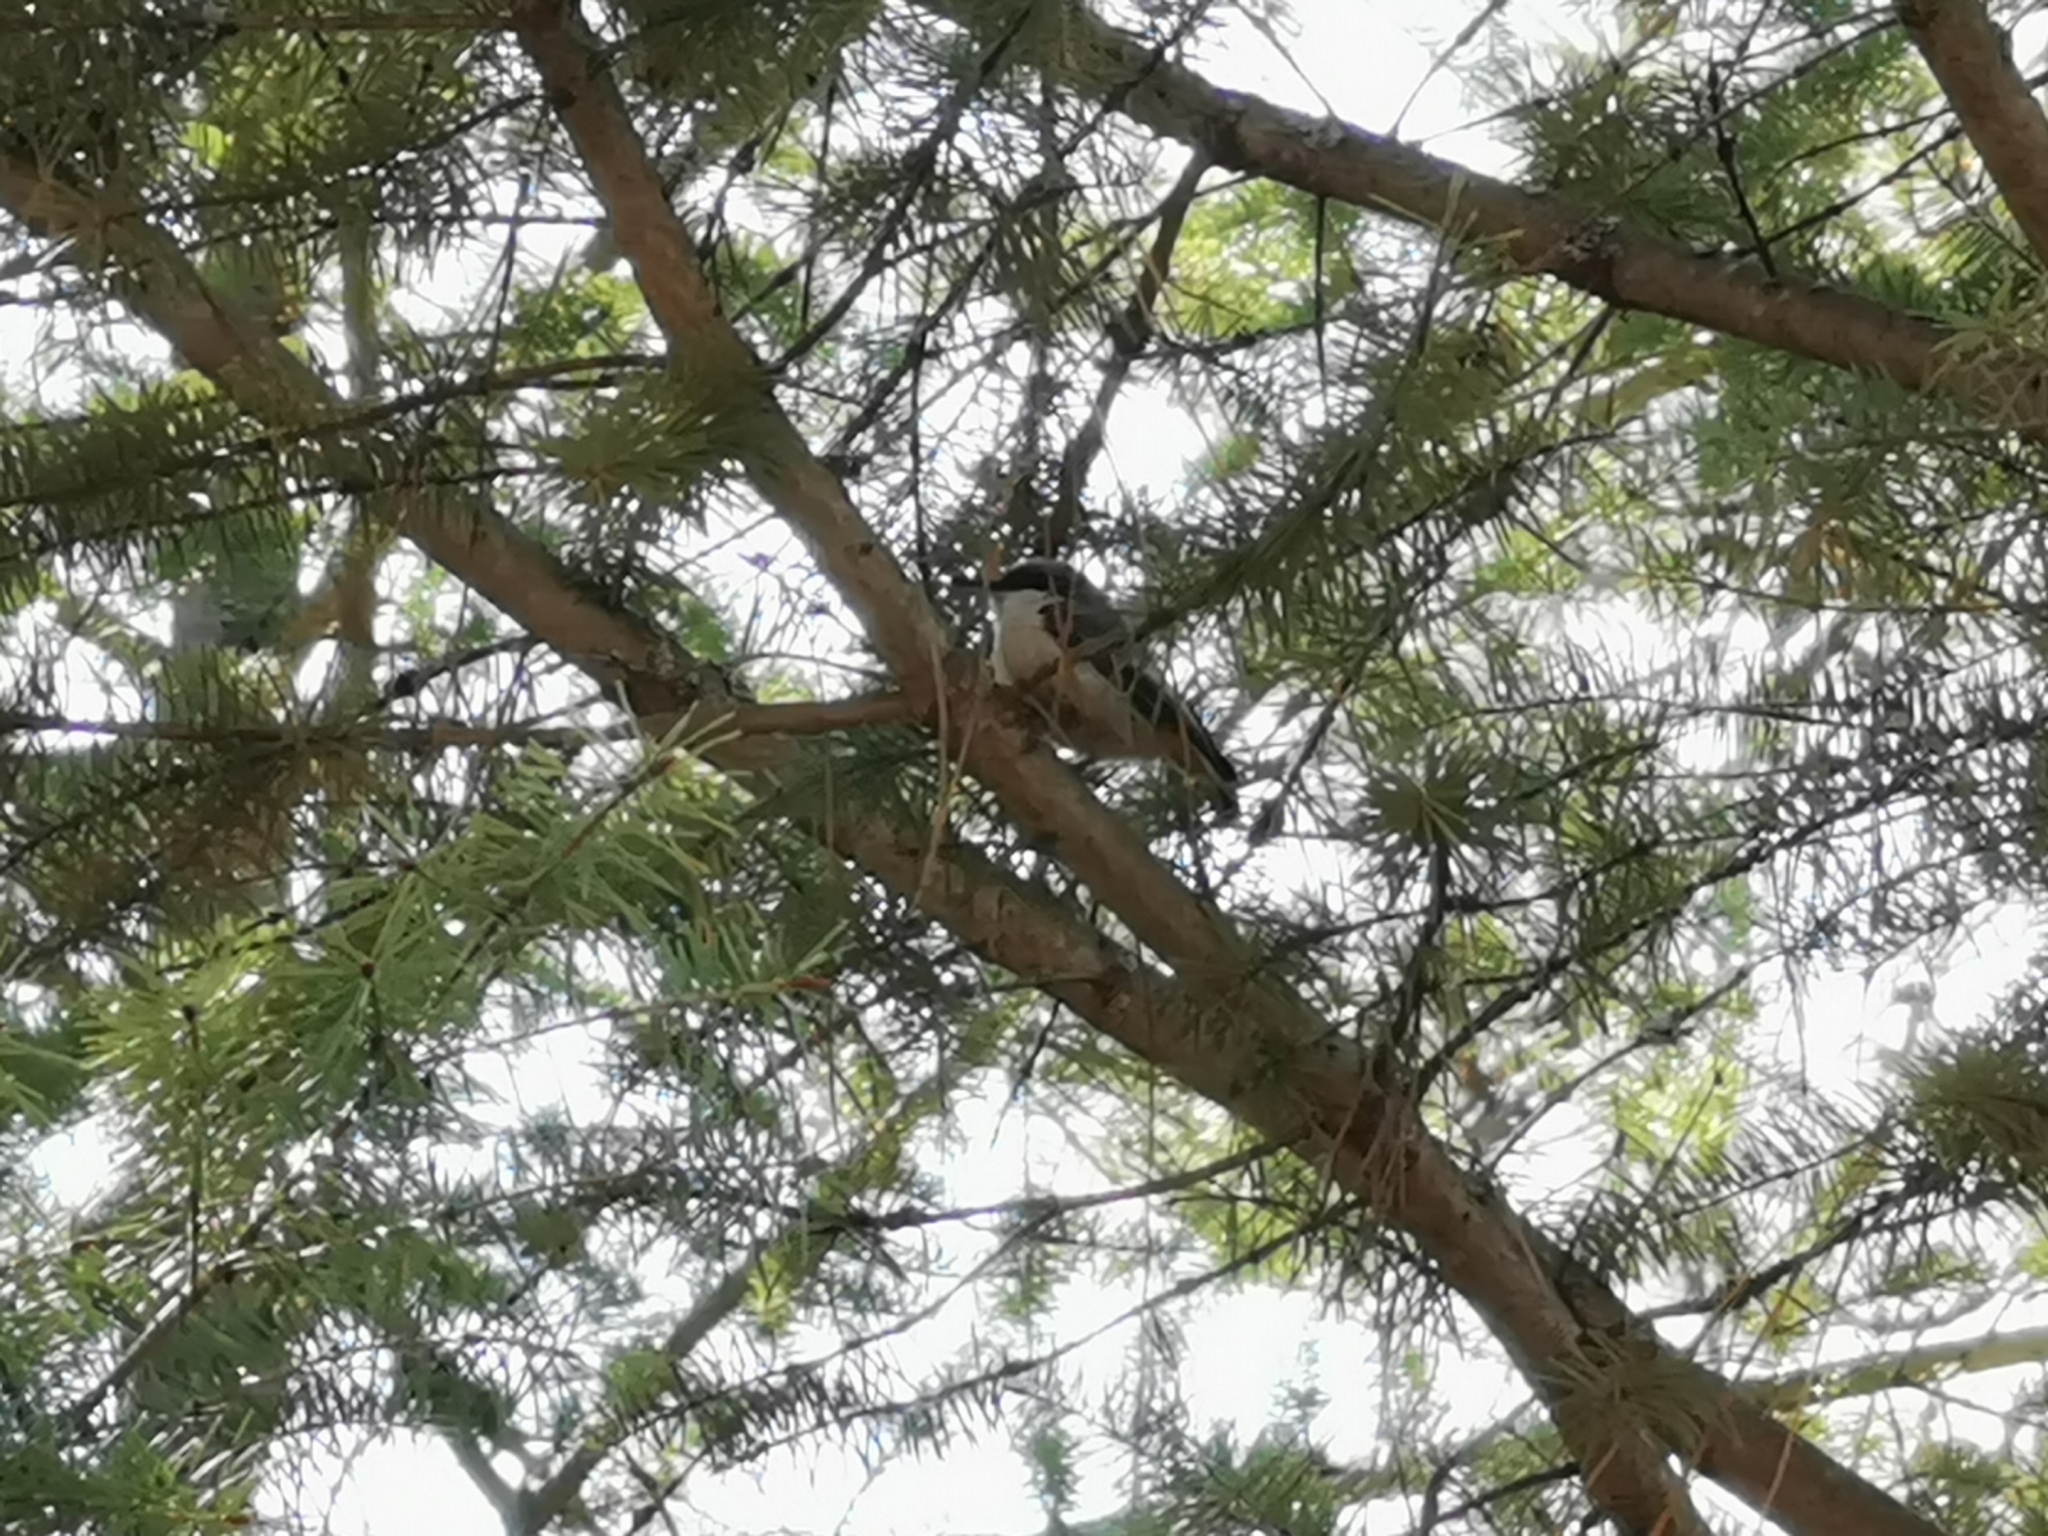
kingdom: Animalia
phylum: Chordata
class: Aves
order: Passeriformes
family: Sittidae
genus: Sitta
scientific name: Sitta pygmaea
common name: Pygmy nuthatch
